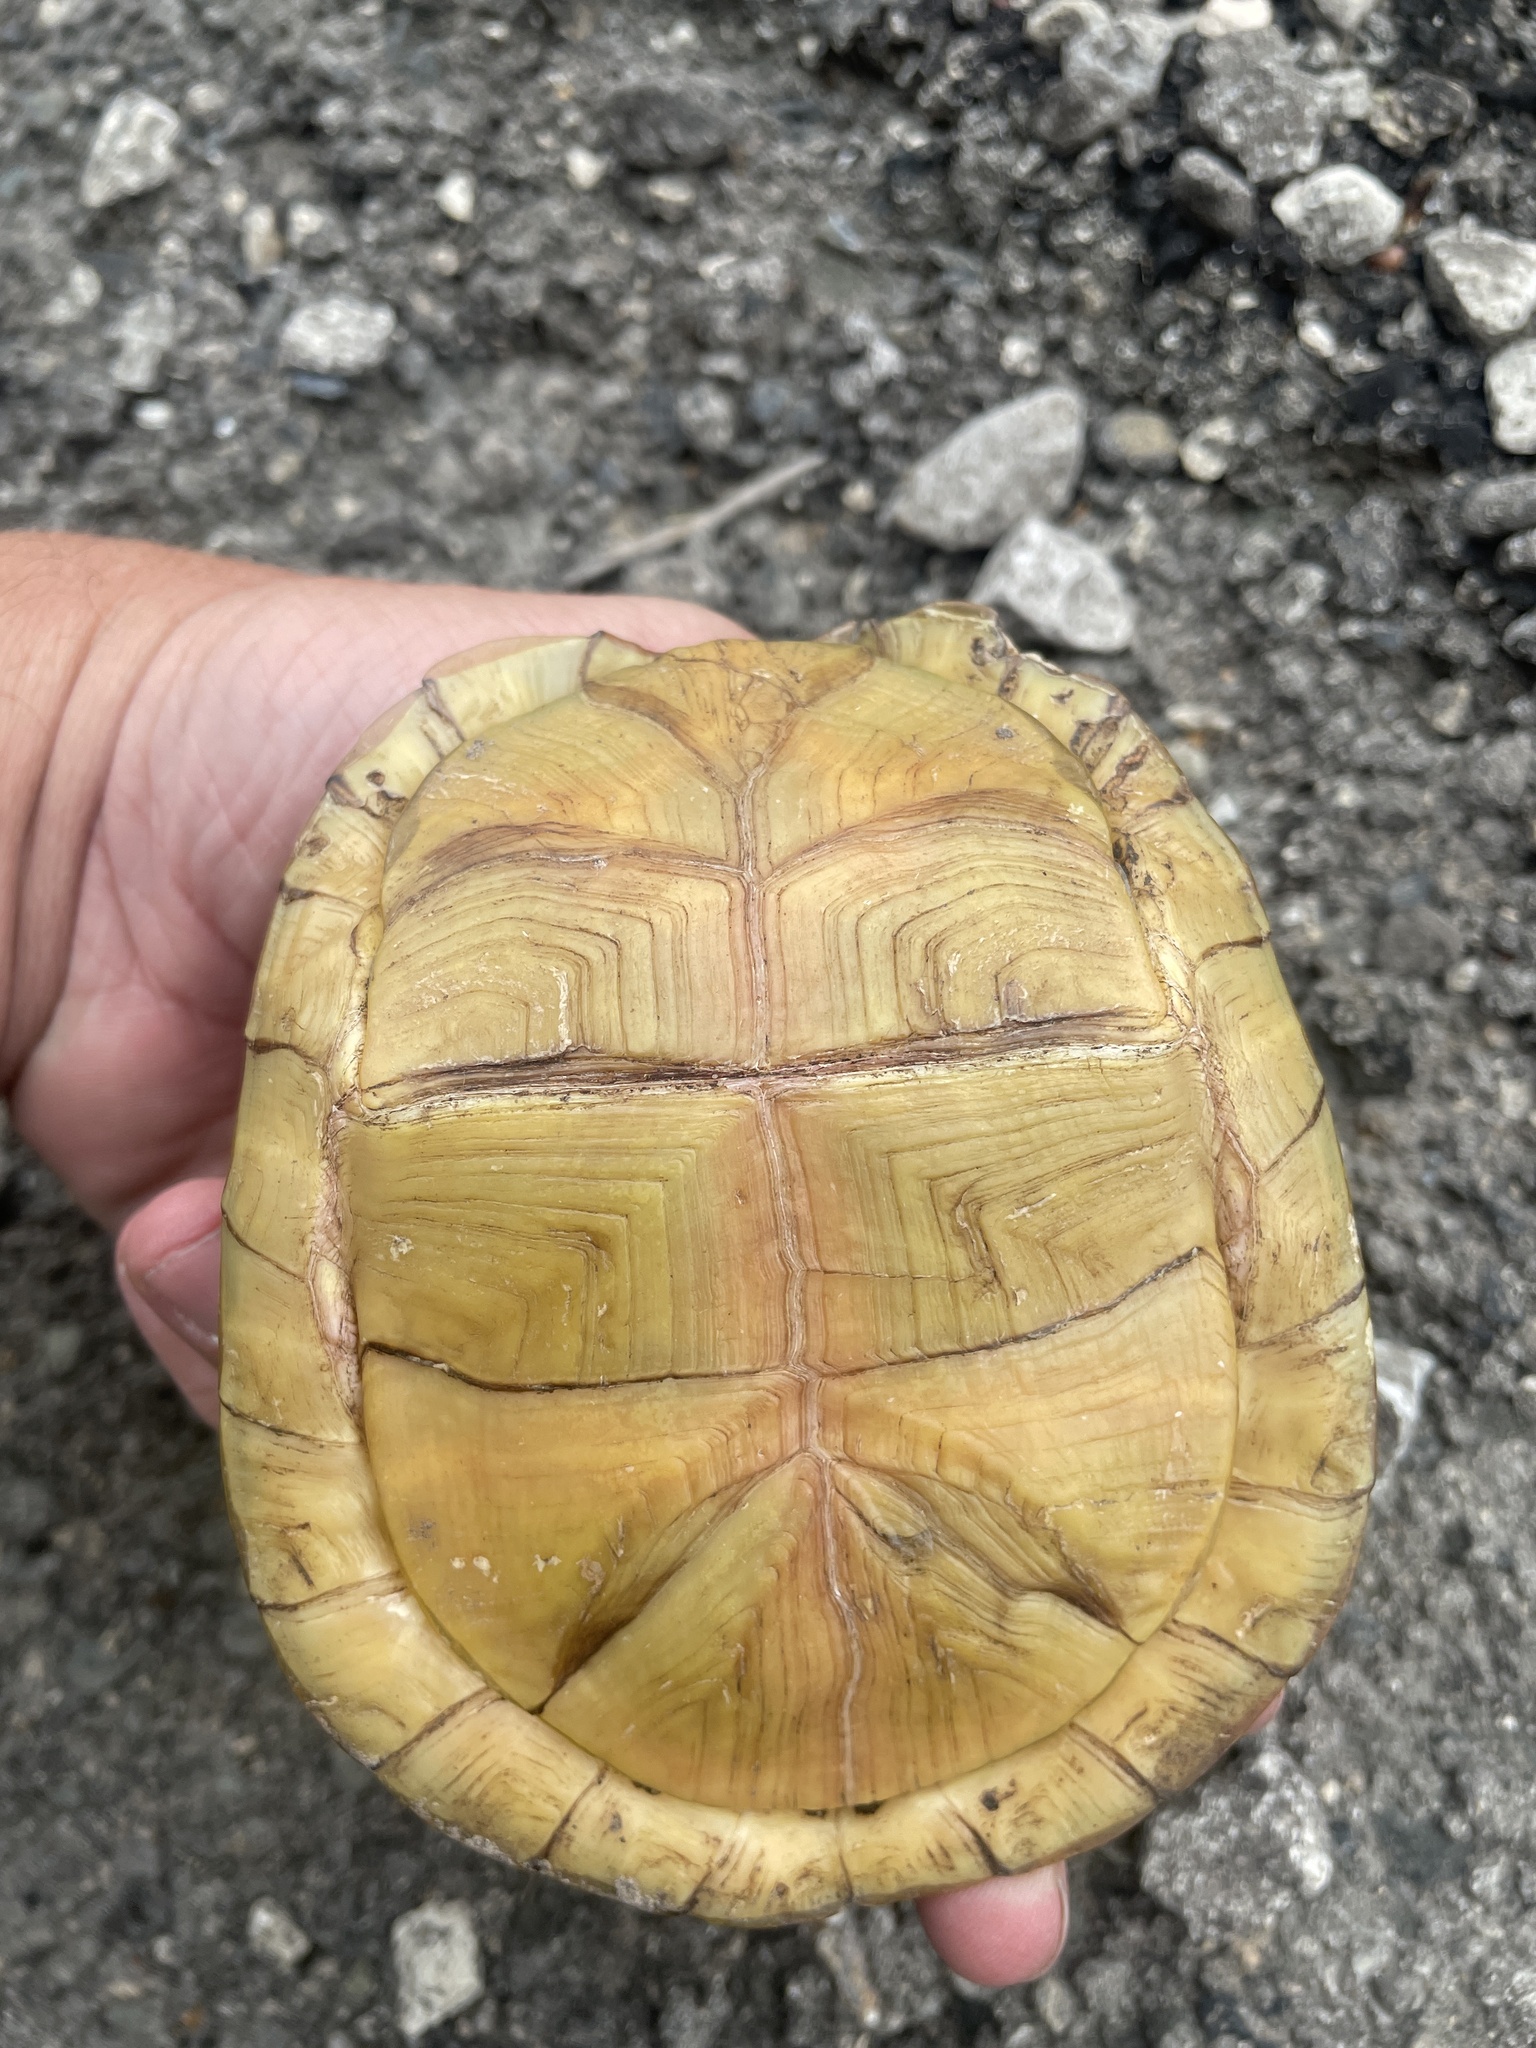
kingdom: Animalia
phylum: Chordata
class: Testudines
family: Emydidae
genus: Terrapene
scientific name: Terrapene carolina
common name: Common box turtle
